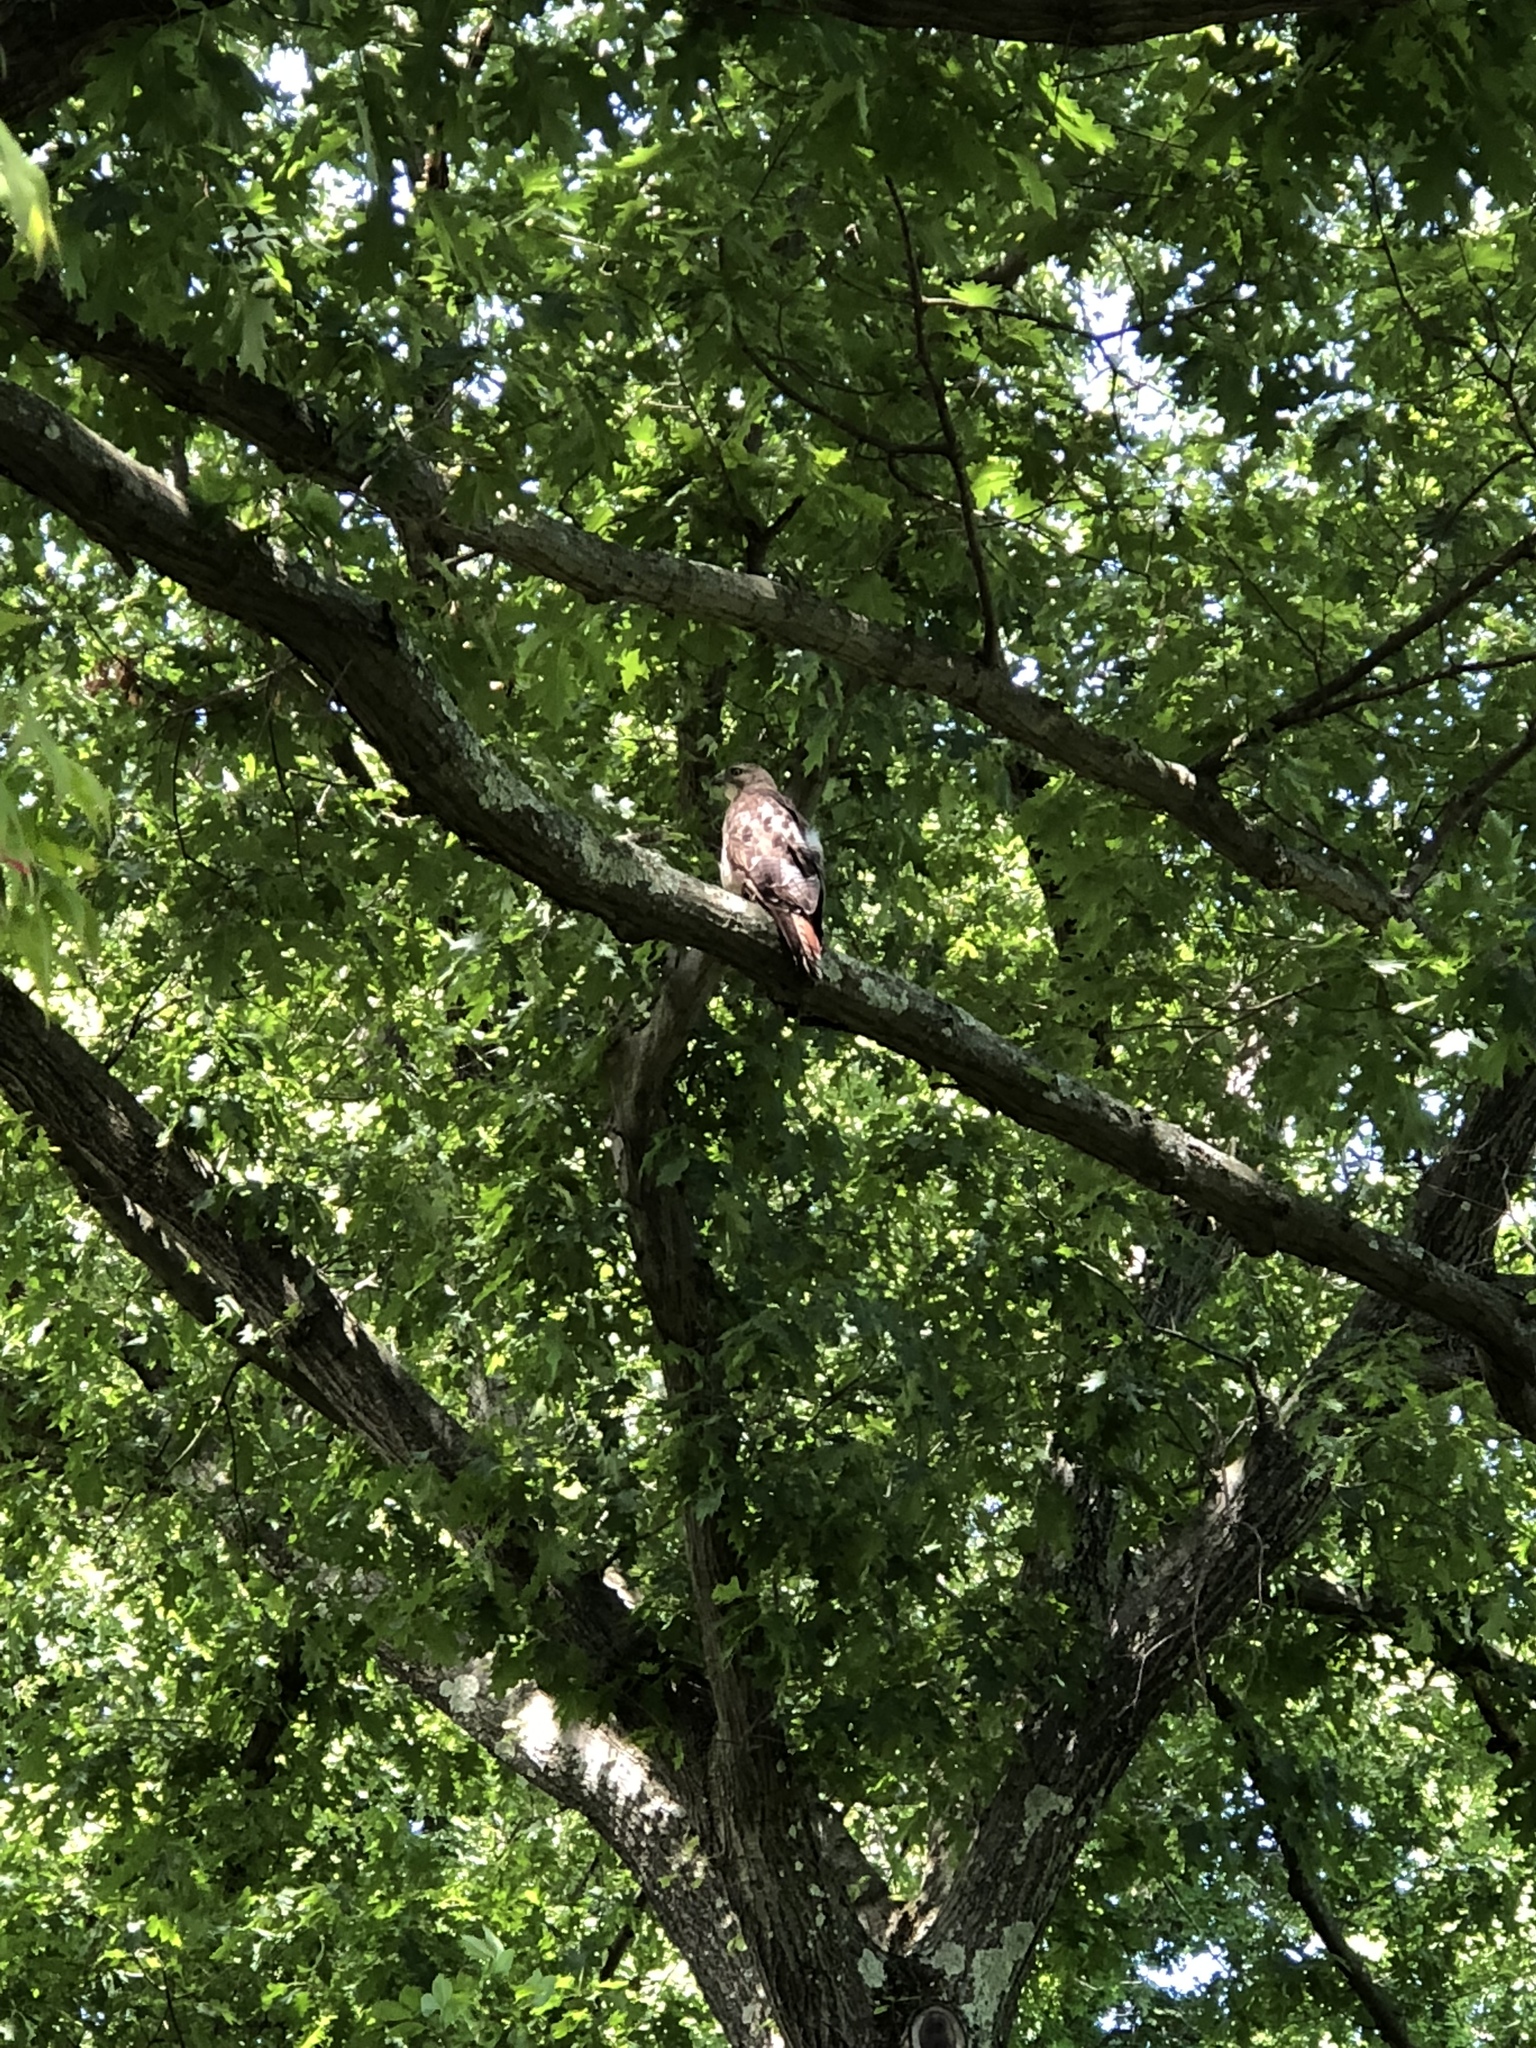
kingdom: Animalia
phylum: Chordata
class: Aves
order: Accipitriformes
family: Accipitridae
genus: Buteo
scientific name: Buteo jamaicensis
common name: Red-tailed hawk
